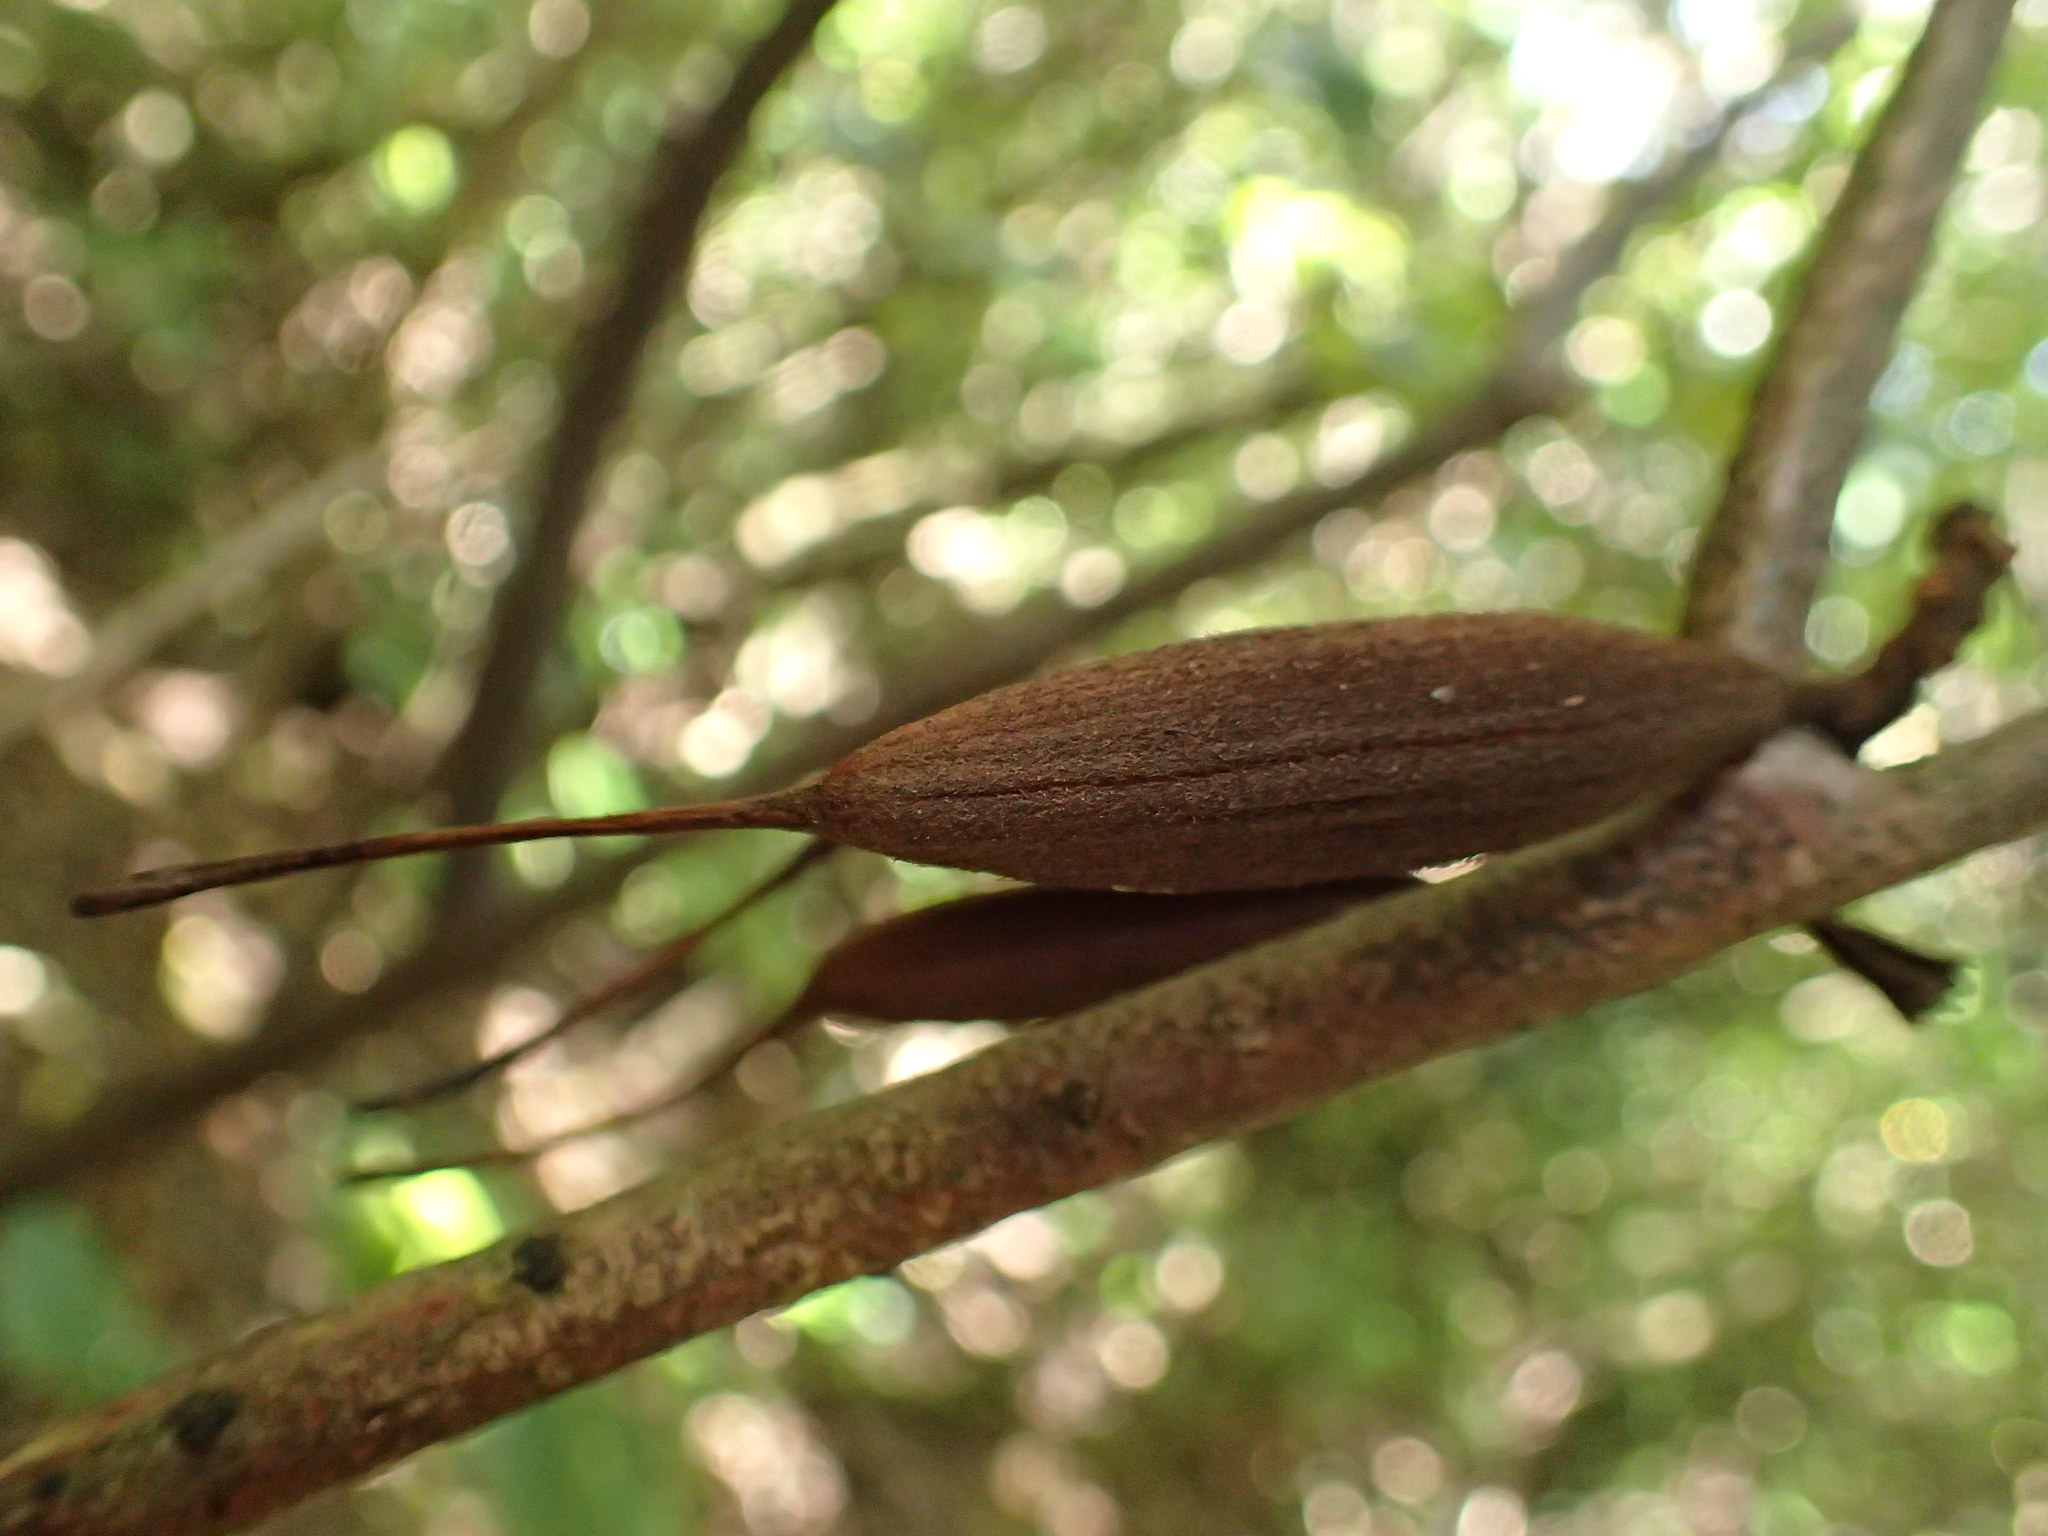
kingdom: Plantae
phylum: Tracheophyta
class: Magnoliopsida
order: Proteales
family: Proteaceae
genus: Knightia
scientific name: Knightia excelsa
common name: New zealand-honeysuckle
